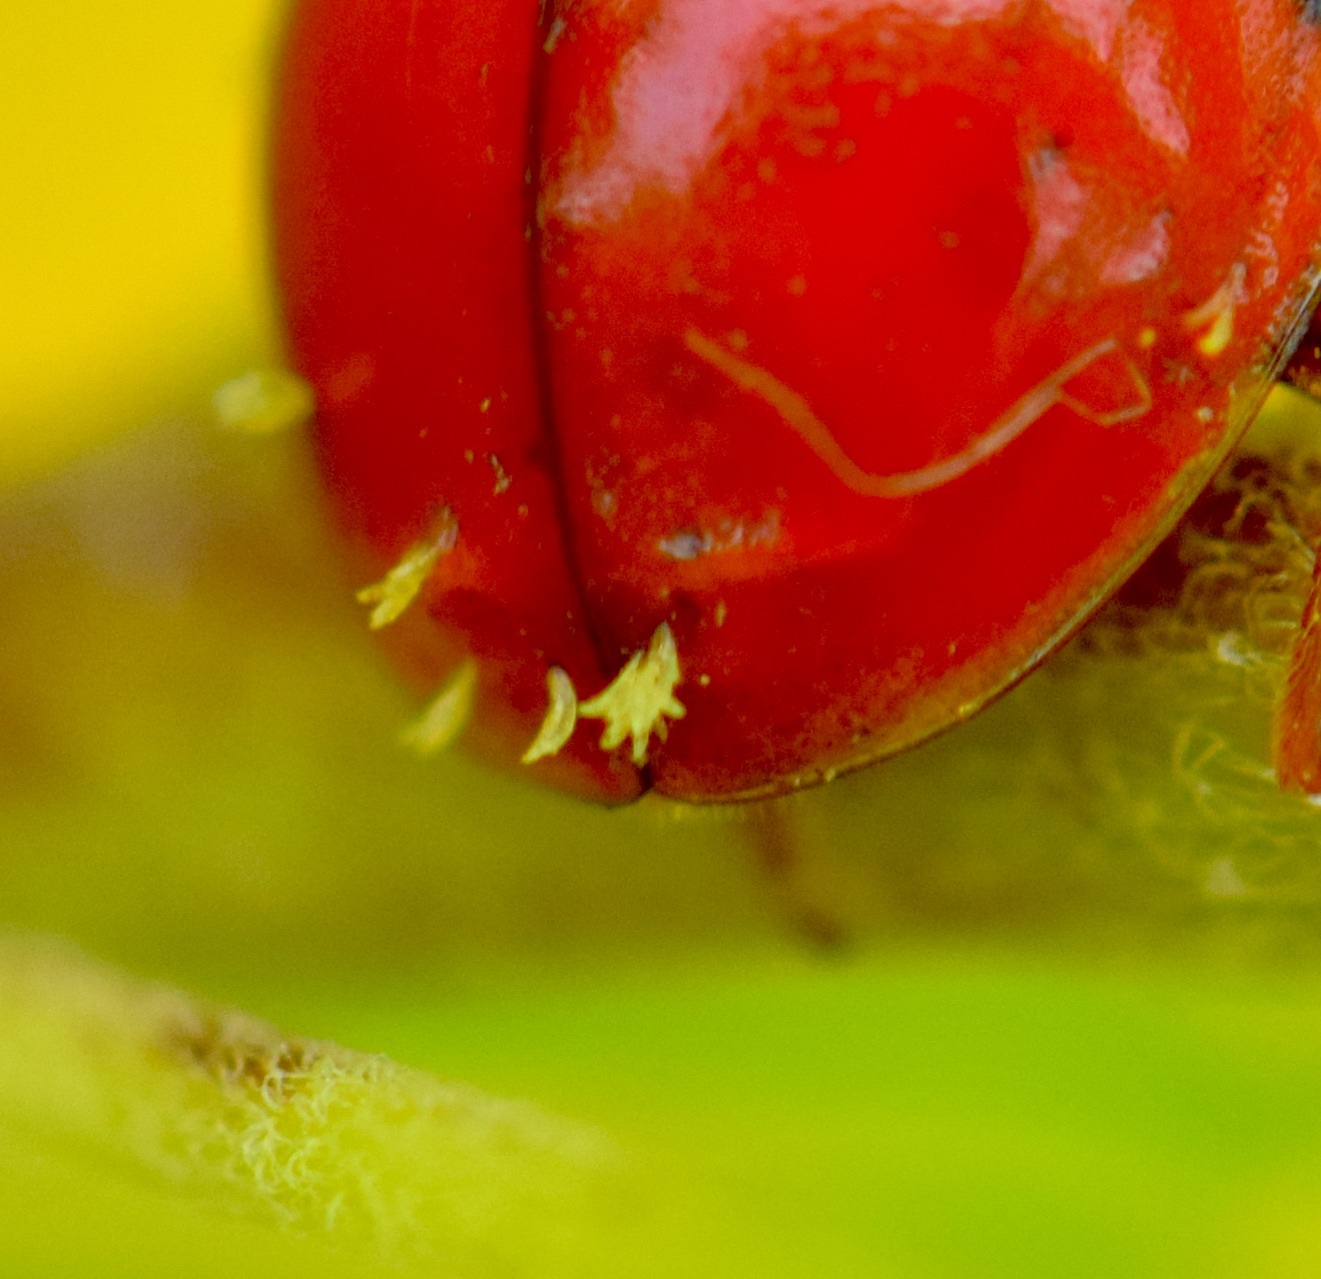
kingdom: Fungi
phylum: Ascomycota
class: Laboulbeniomycetes
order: Laboulbeniales
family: Laboulbeniaceae
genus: Hesperomyces
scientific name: Hesperomyces harmoniae
